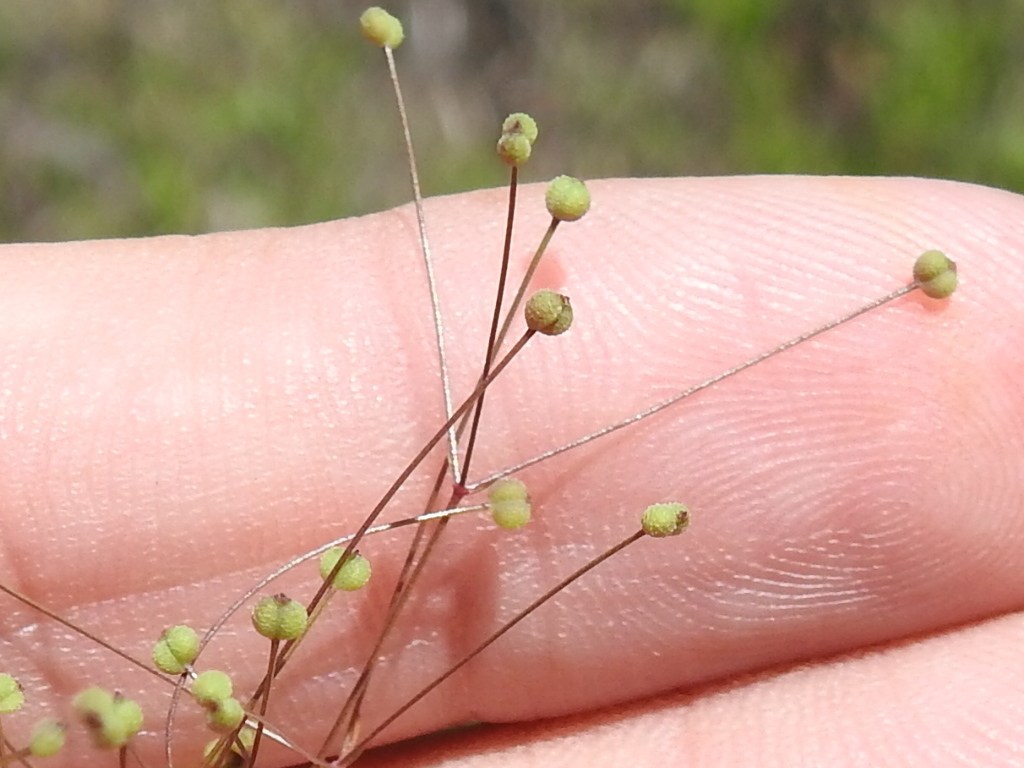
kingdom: Plantae
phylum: Tracheophyta
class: Magnoliopsida
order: Apiales
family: Apiaceae
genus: Spermolepis
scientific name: Spermolepis divaricata
